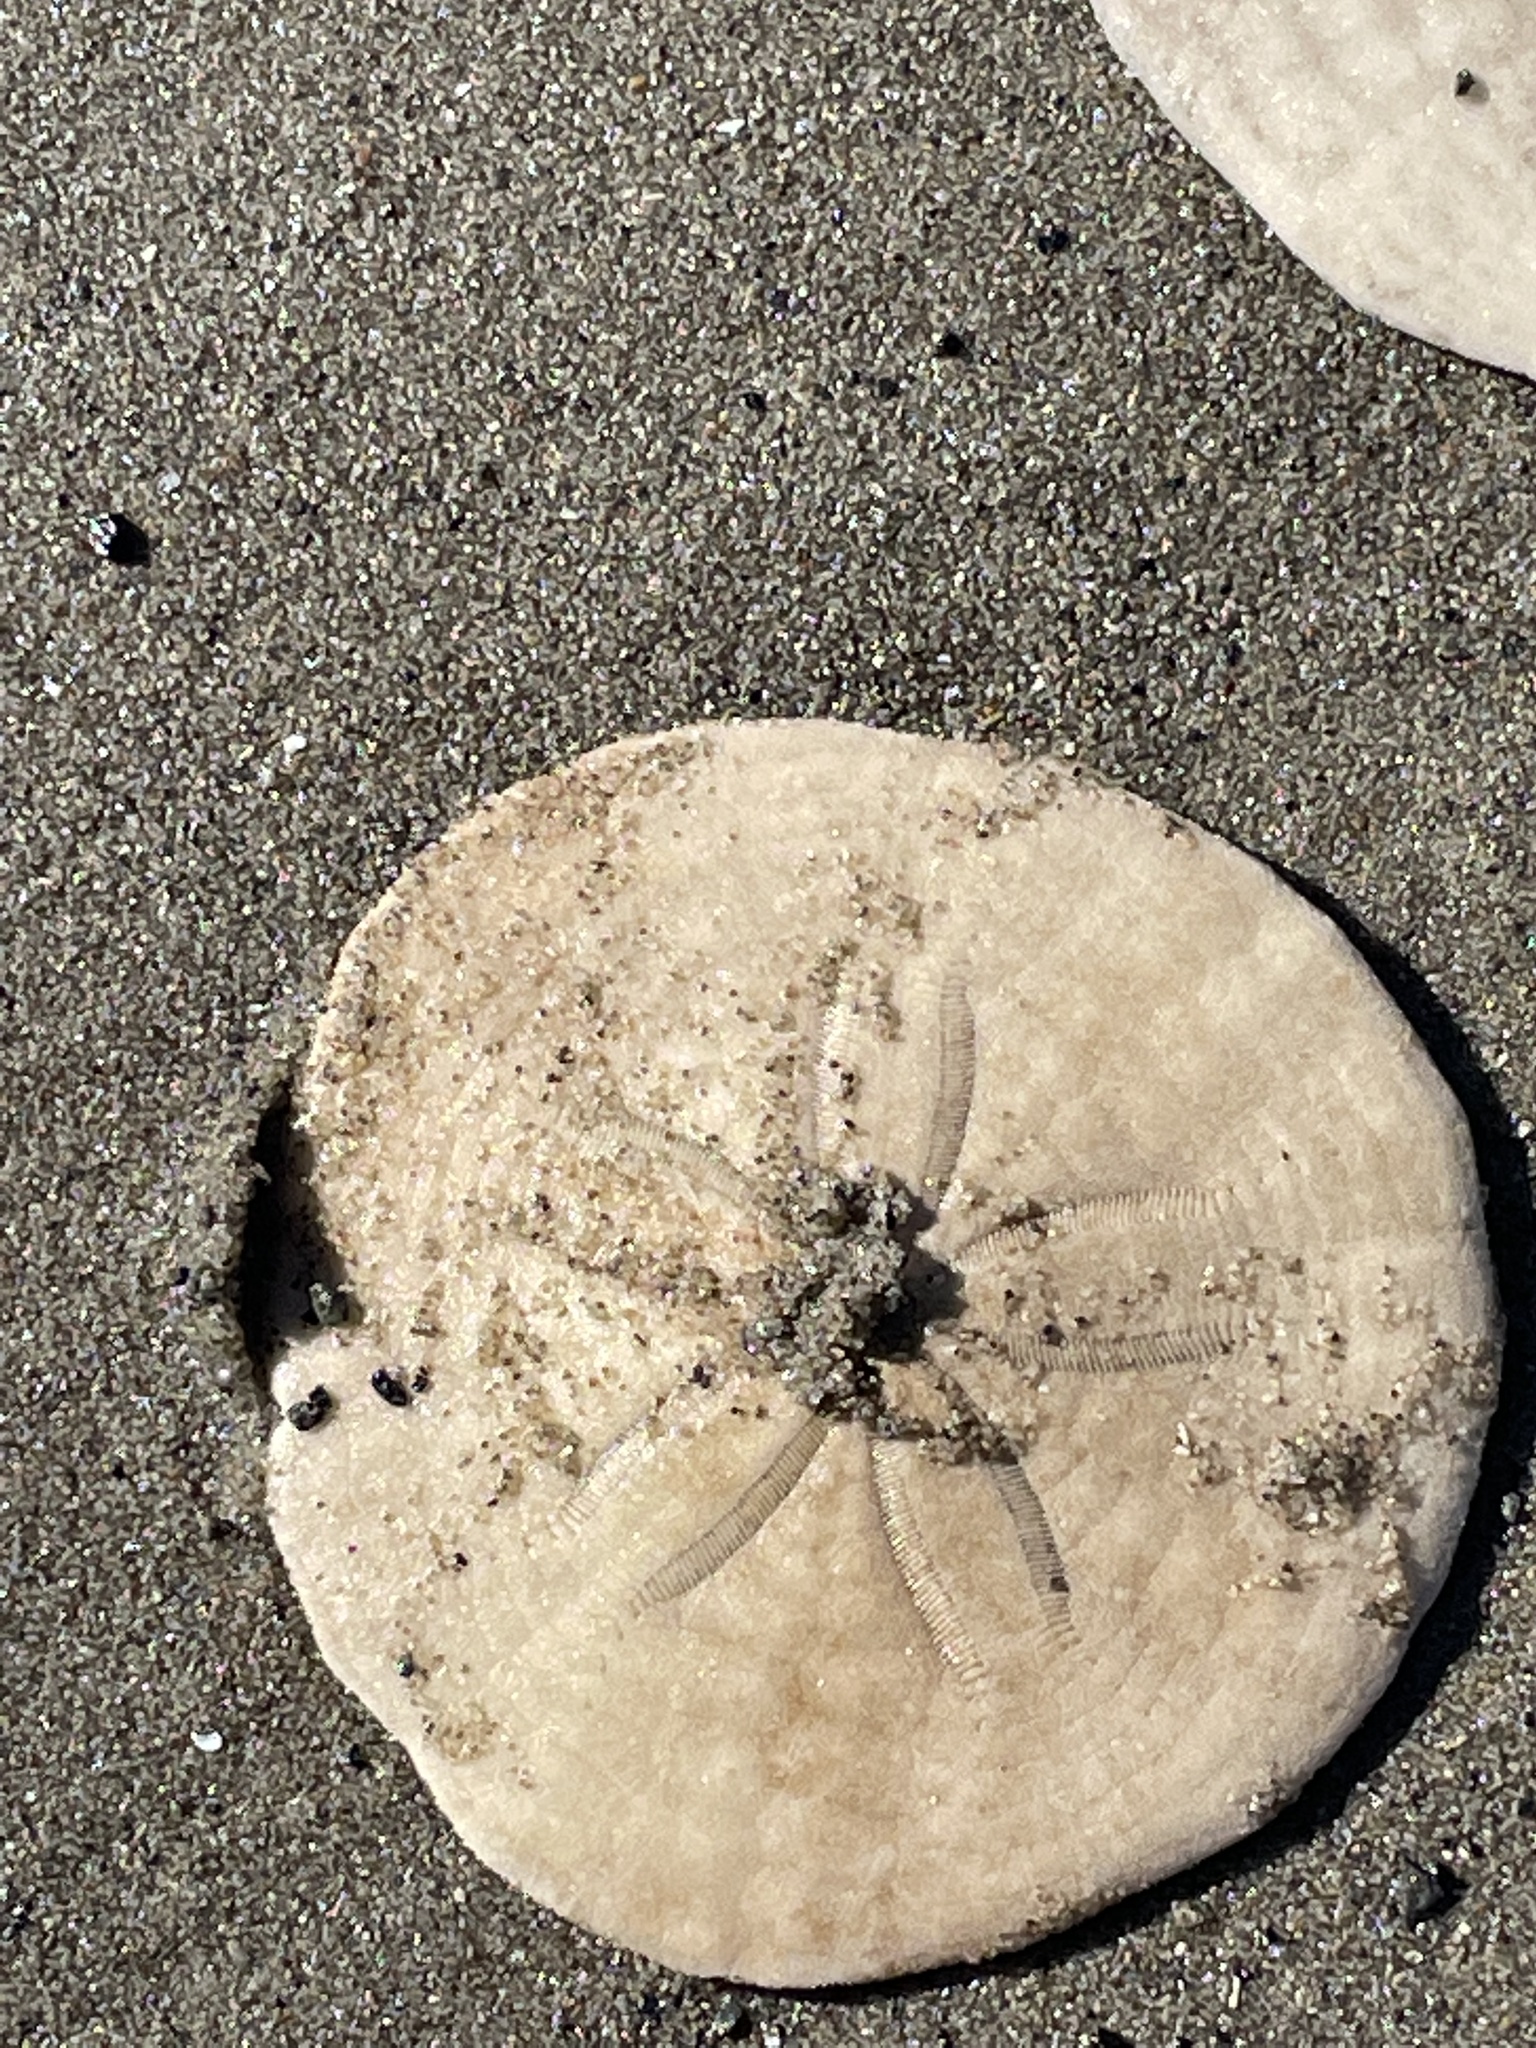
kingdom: Animalia
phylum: Echinodermata
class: Echinoidea
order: Echinolampadacea
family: Echinarachniidae
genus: Echinarachnius
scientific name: Echinarachnius parma
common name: Common sand dollar
